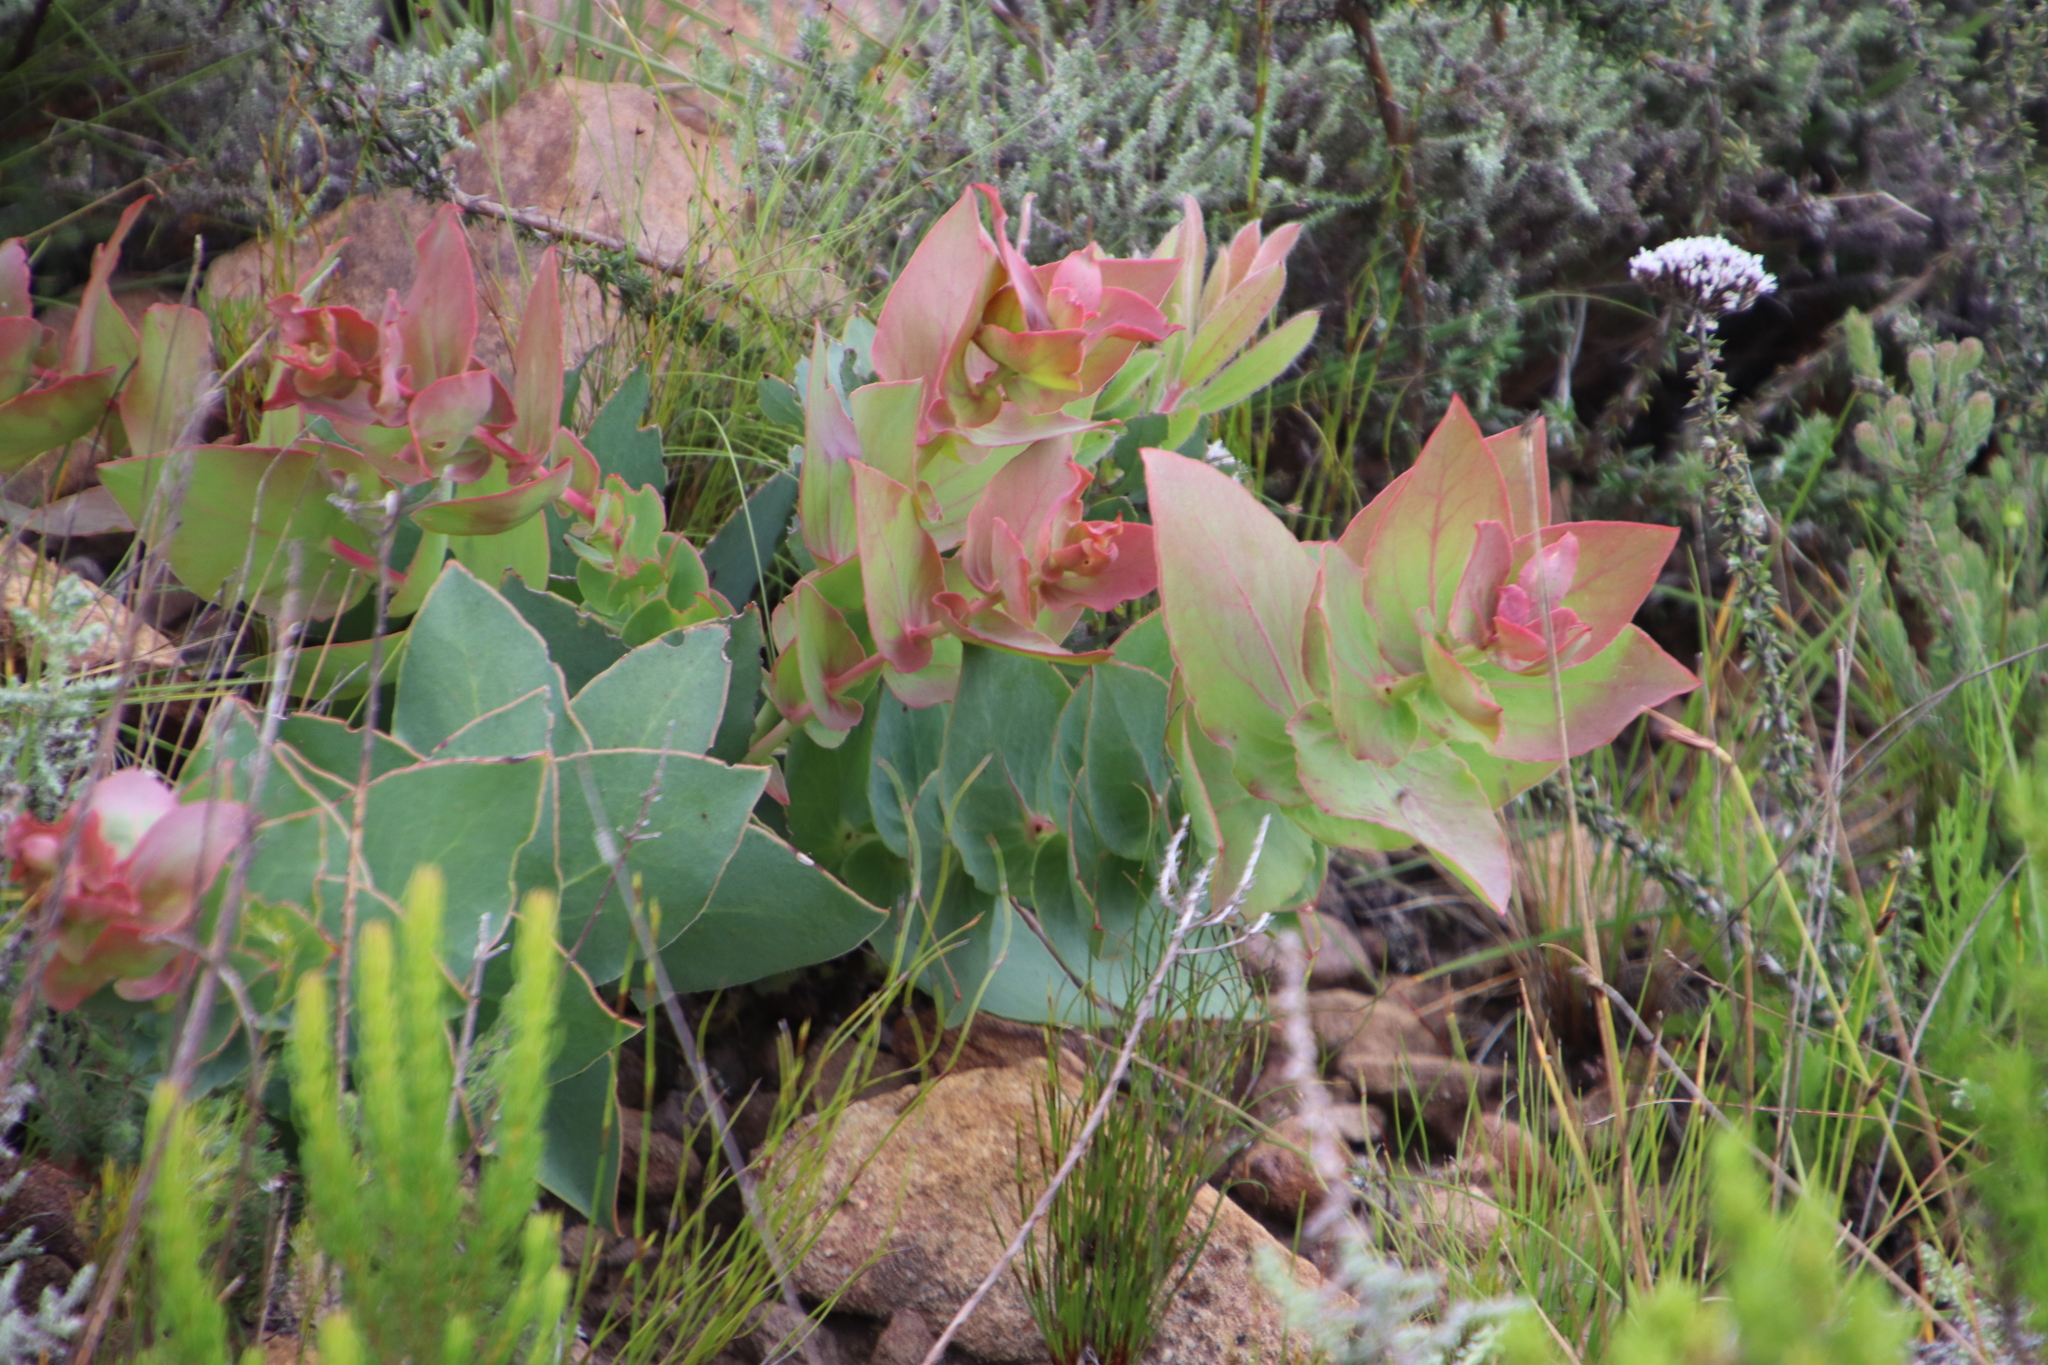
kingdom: Plantae
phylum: Tracheophyta
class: Magnoliopsida
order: Proteales
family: Proteaceae
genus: Protea
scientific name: Protea amplexicaulis
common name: Clasping-leaf sugarbush
